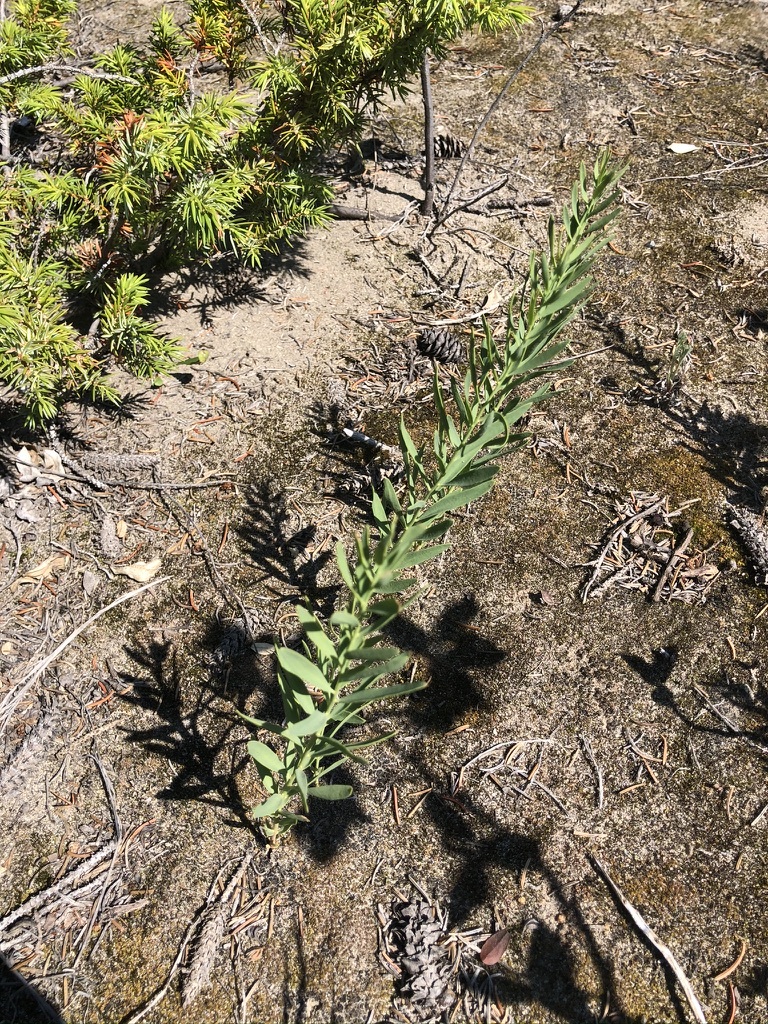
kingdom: Plantae
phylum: Tracheophyta
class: Magnoliopsida
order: Lamiales
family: Plantaginaceae
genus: Linaria
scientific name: Linaria vulgaris
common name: Butter and eggs
